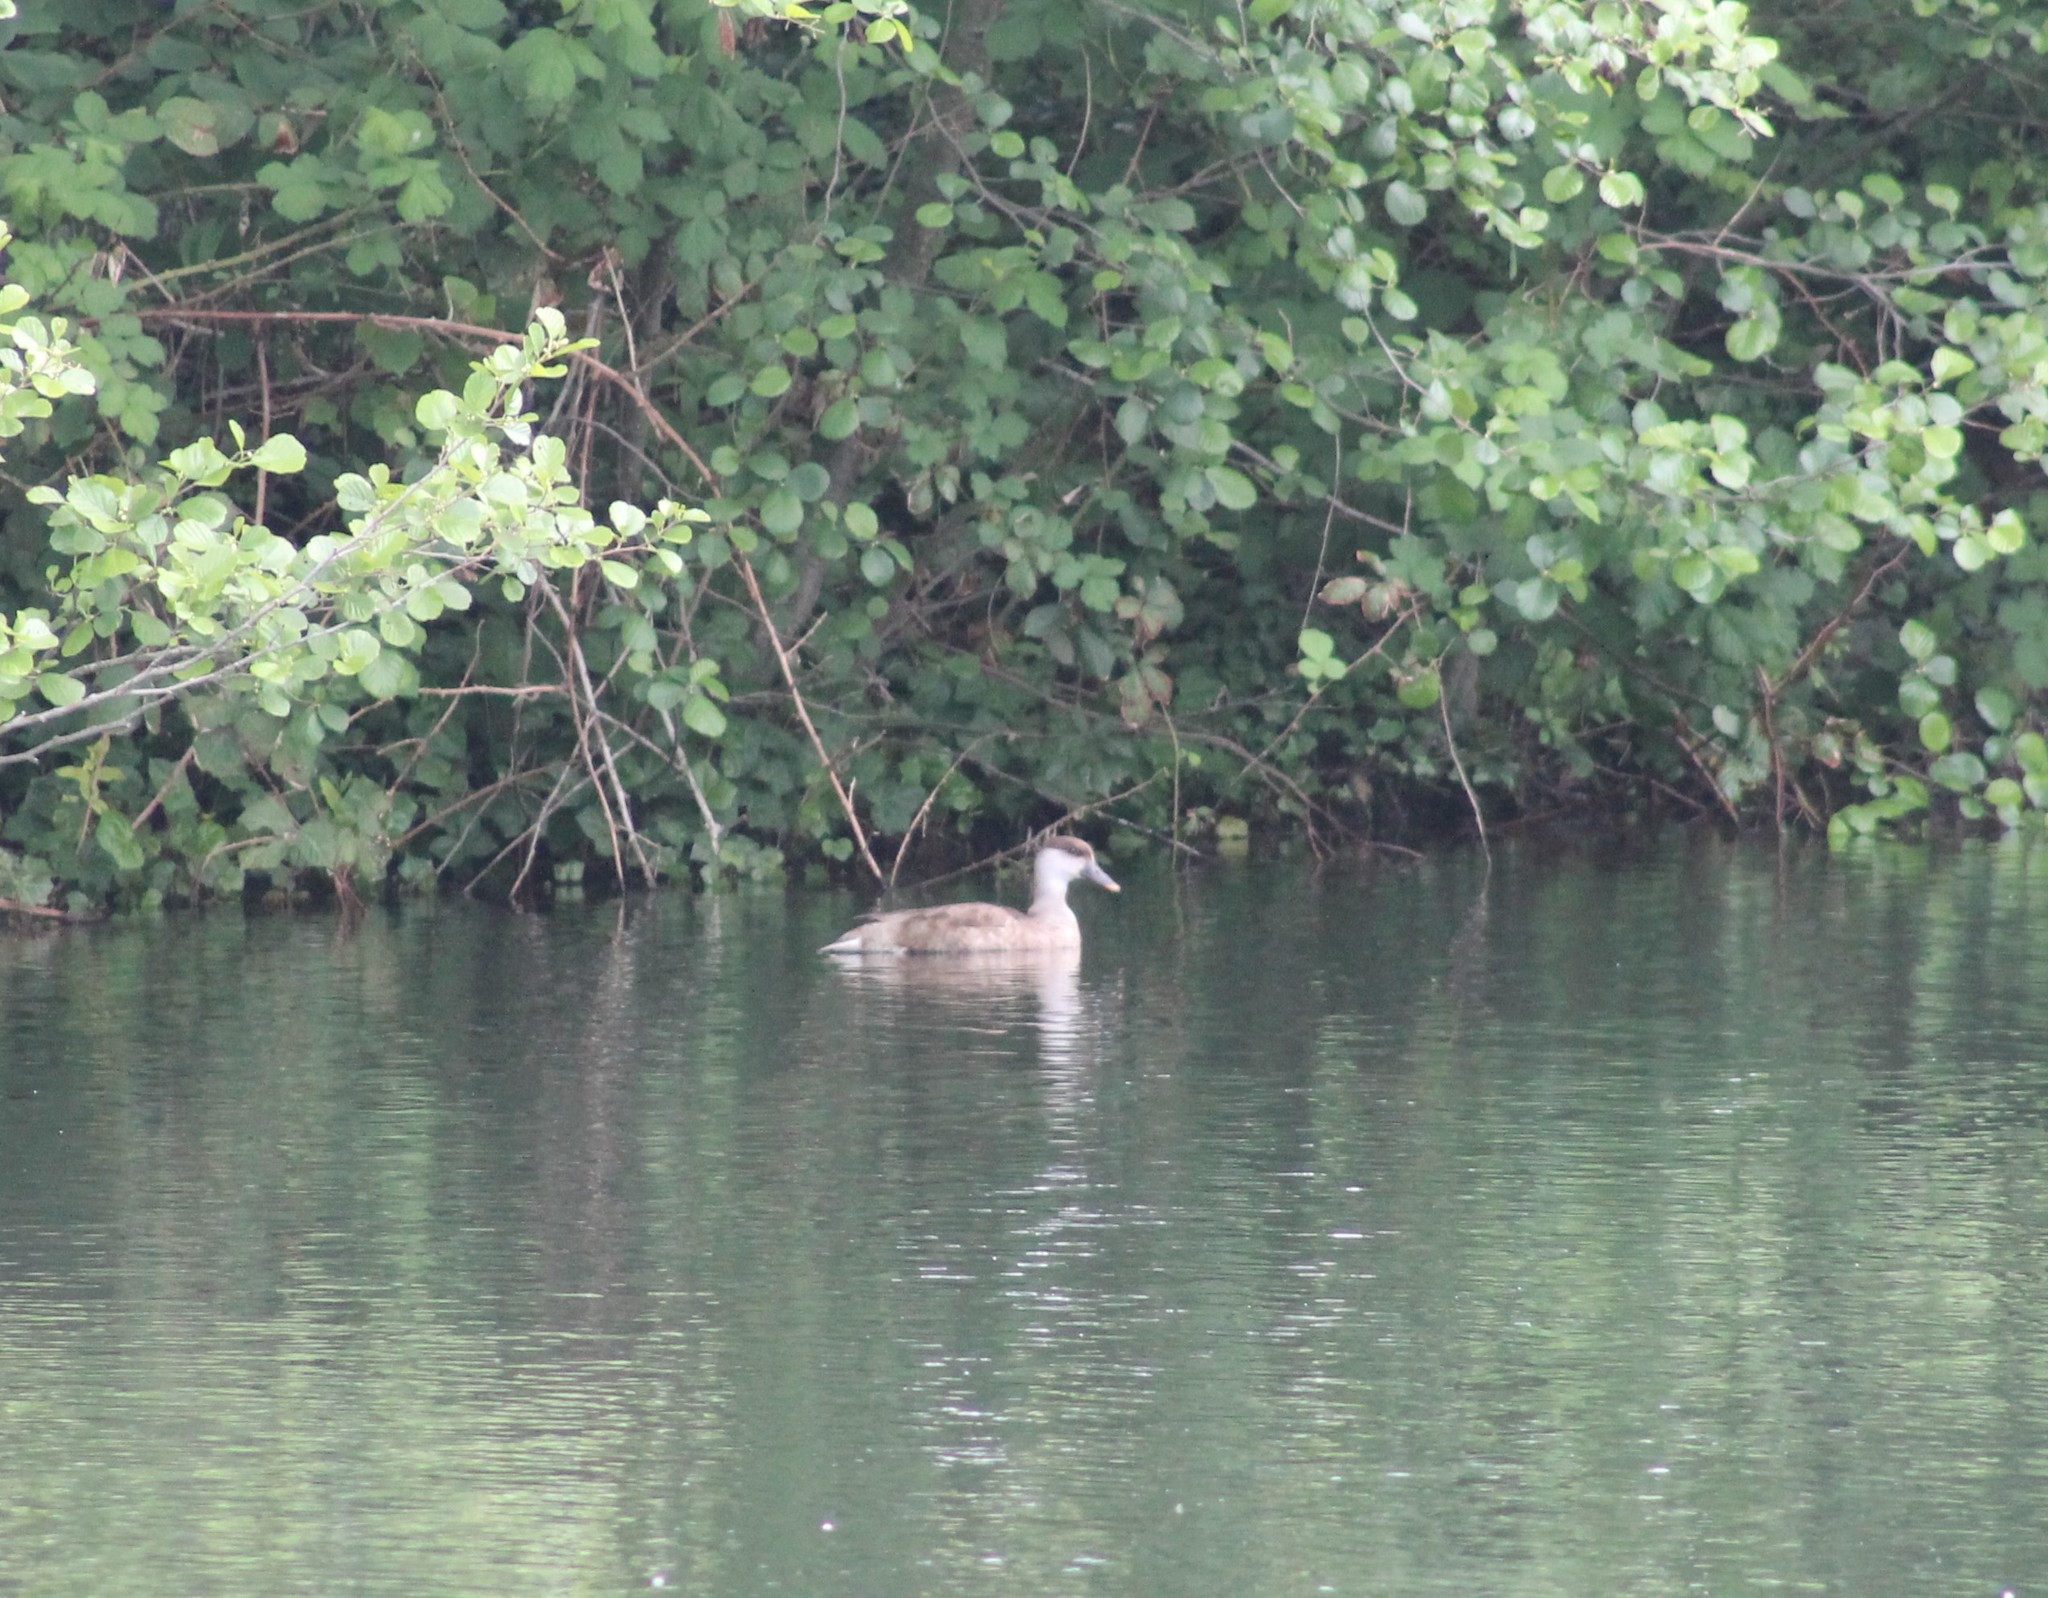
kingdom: Animalia
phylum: Chordata
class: Aves
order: Anseriformes
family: Anatidae
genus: Netta
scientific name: Netta rufina
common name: Red-crested pochard
